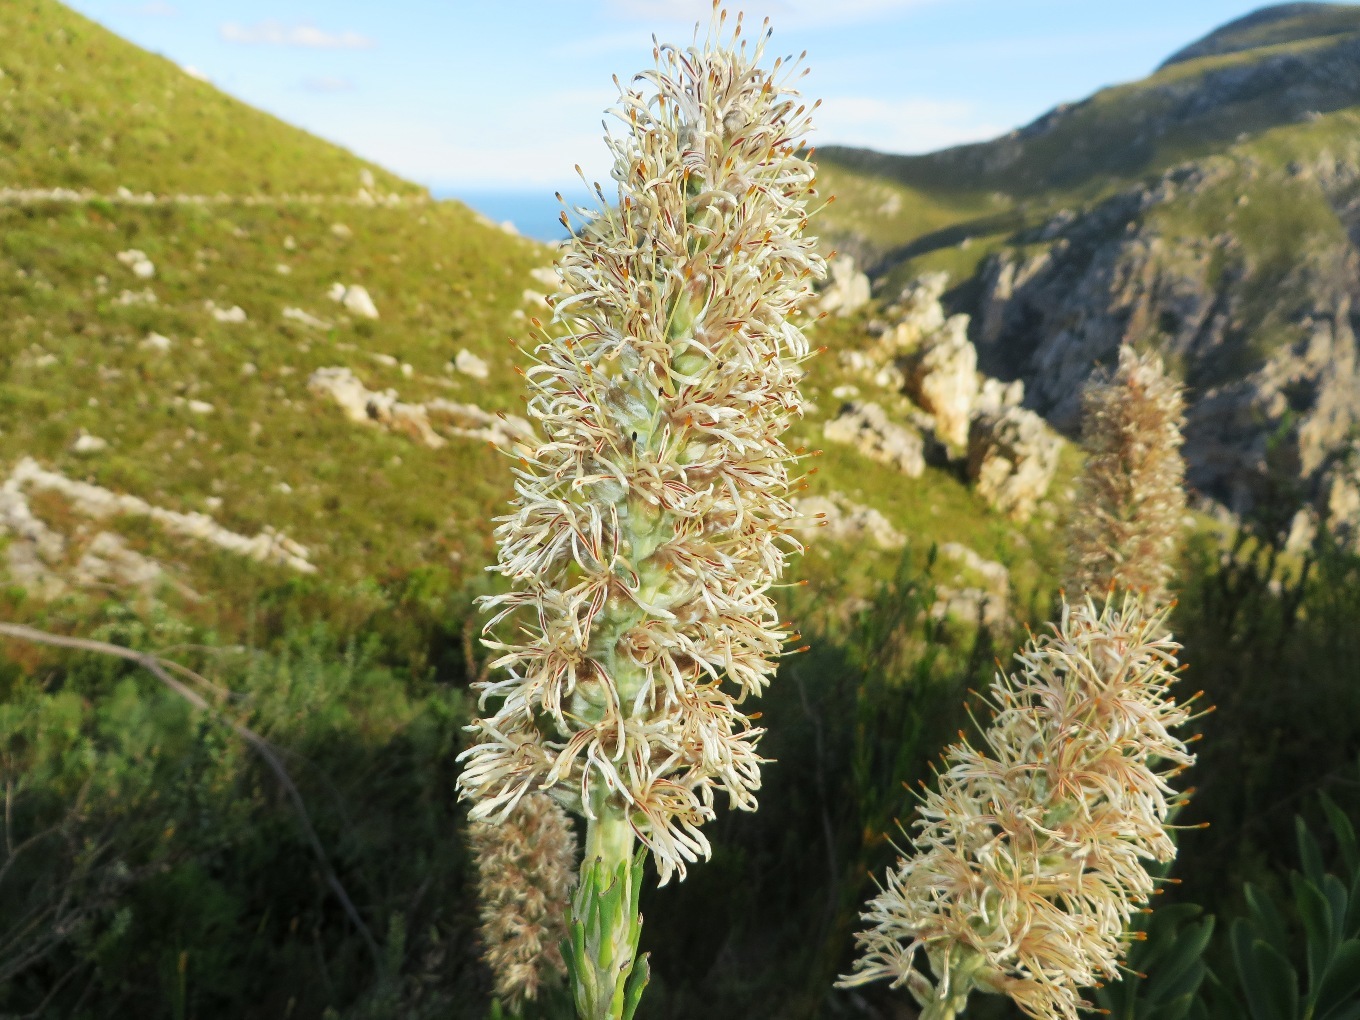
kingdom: Plantae
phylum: Tracheophyta
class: Magnoliopsida
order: Proteales
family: Proteaceae
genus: Paranomus
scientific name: Paranomus sceptrum-gustavianus
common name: King gustav's sceptre
